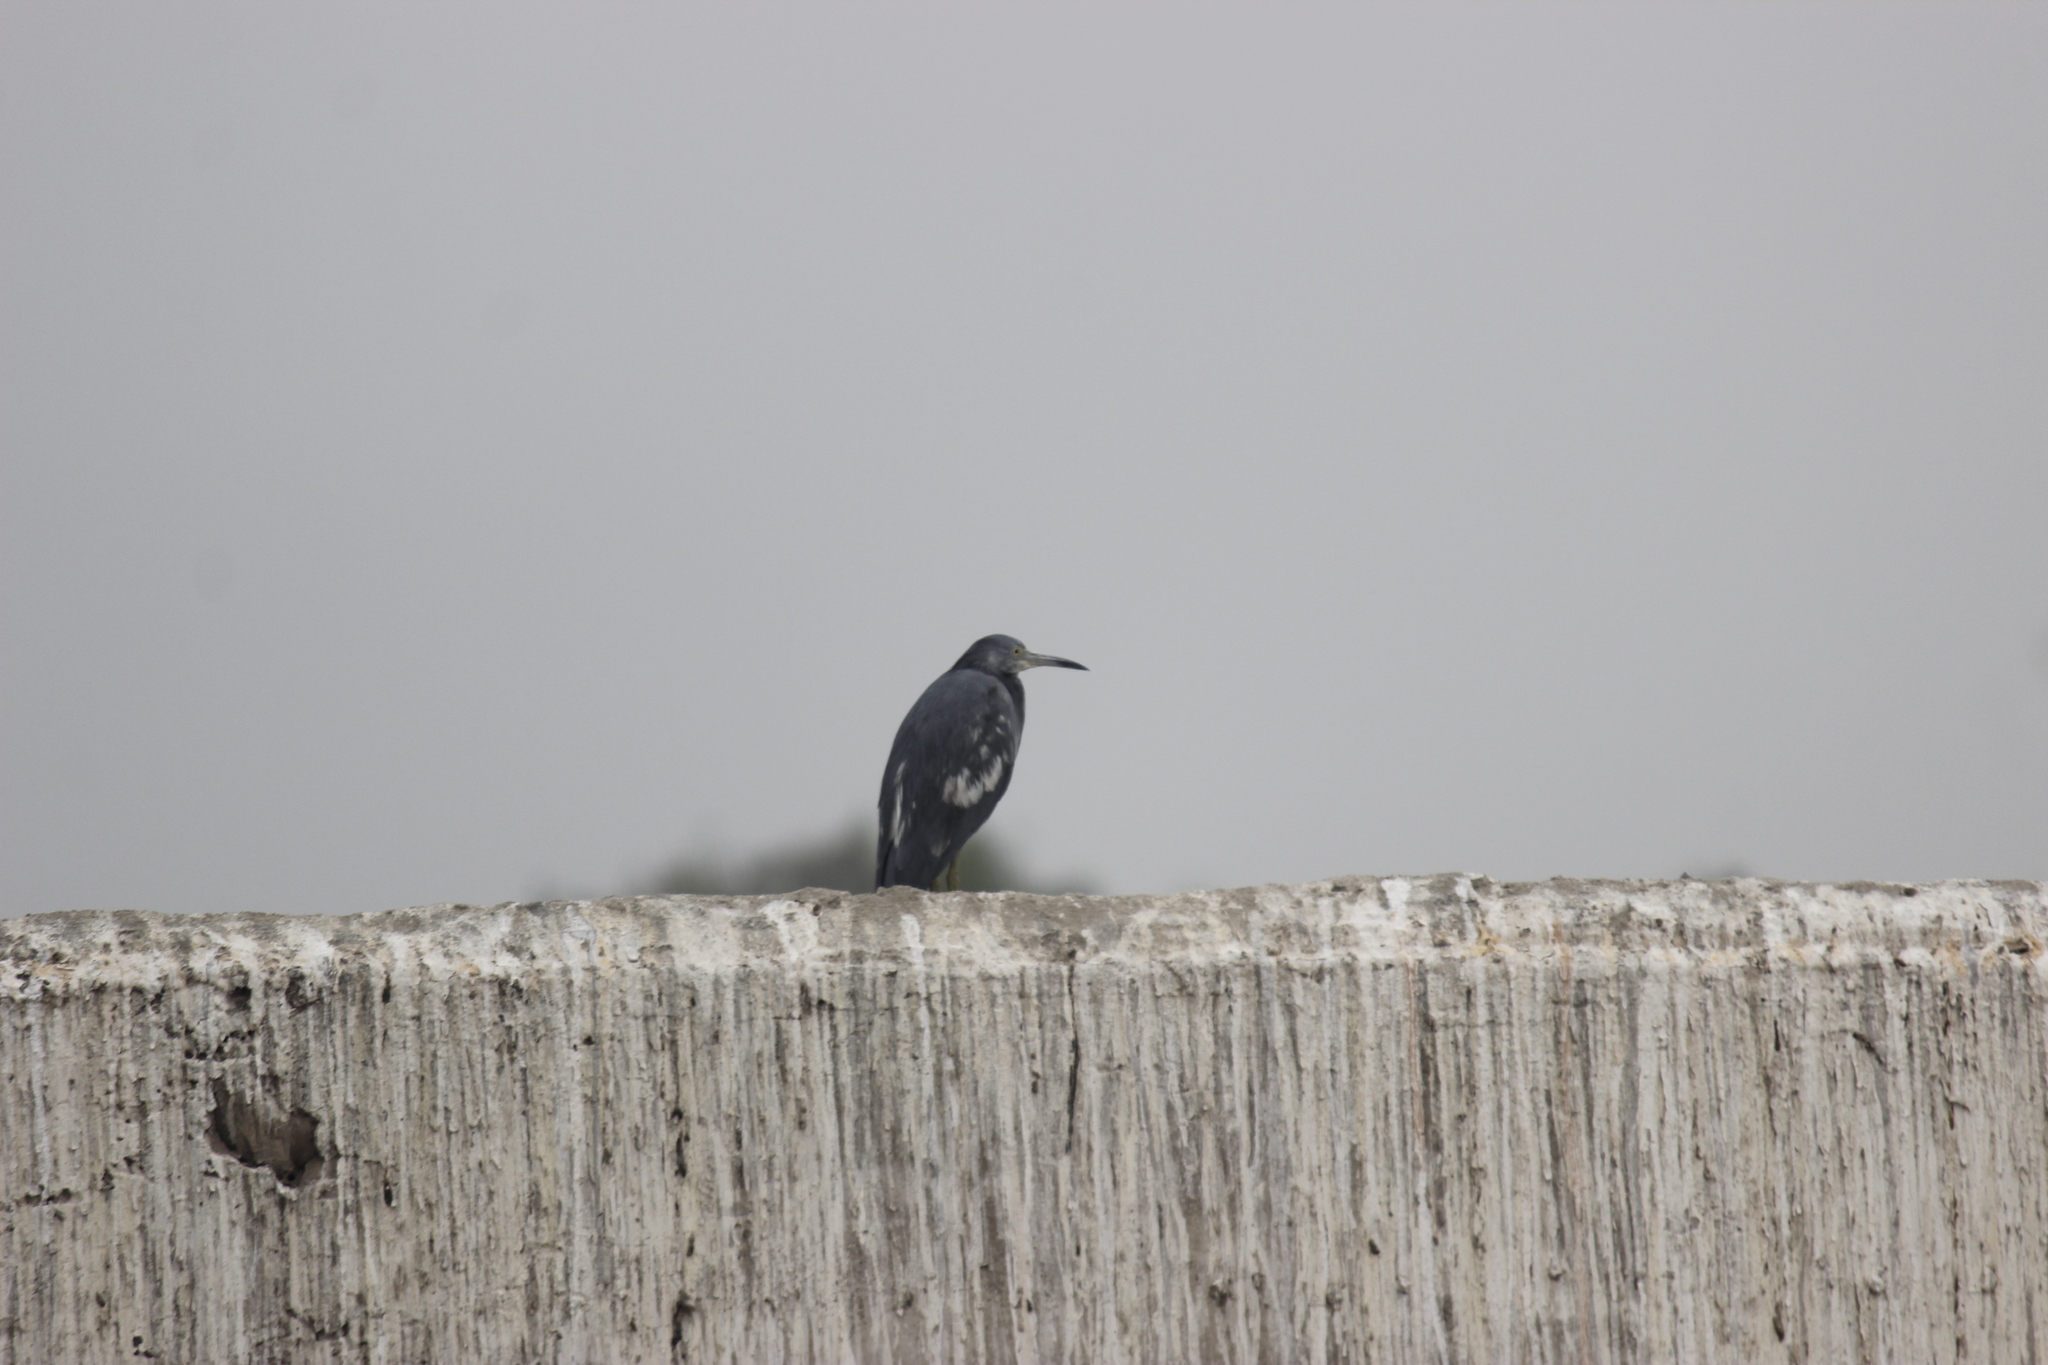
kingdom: Animalia
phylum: Chordata
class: Aves
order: Pelecaniformes
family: Ardeidae
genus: Egretta
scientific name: Egretta caerulea
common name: Little blue heron
